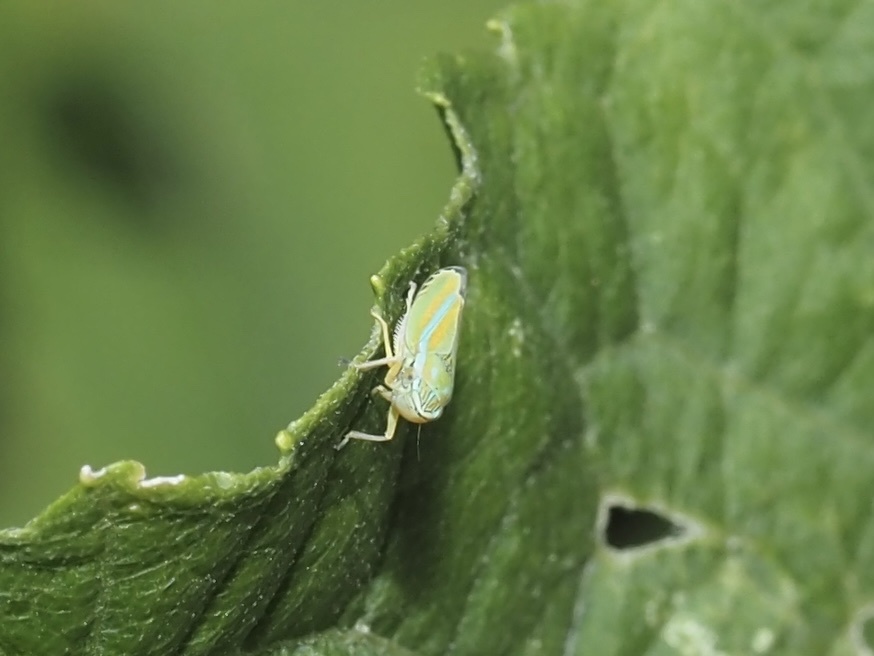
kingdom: Animalia
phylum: Arthropoda
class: Insecta
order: Hemiptera
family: Cicadellidae
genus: Graphocephala
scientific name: Graphocephala versuta
